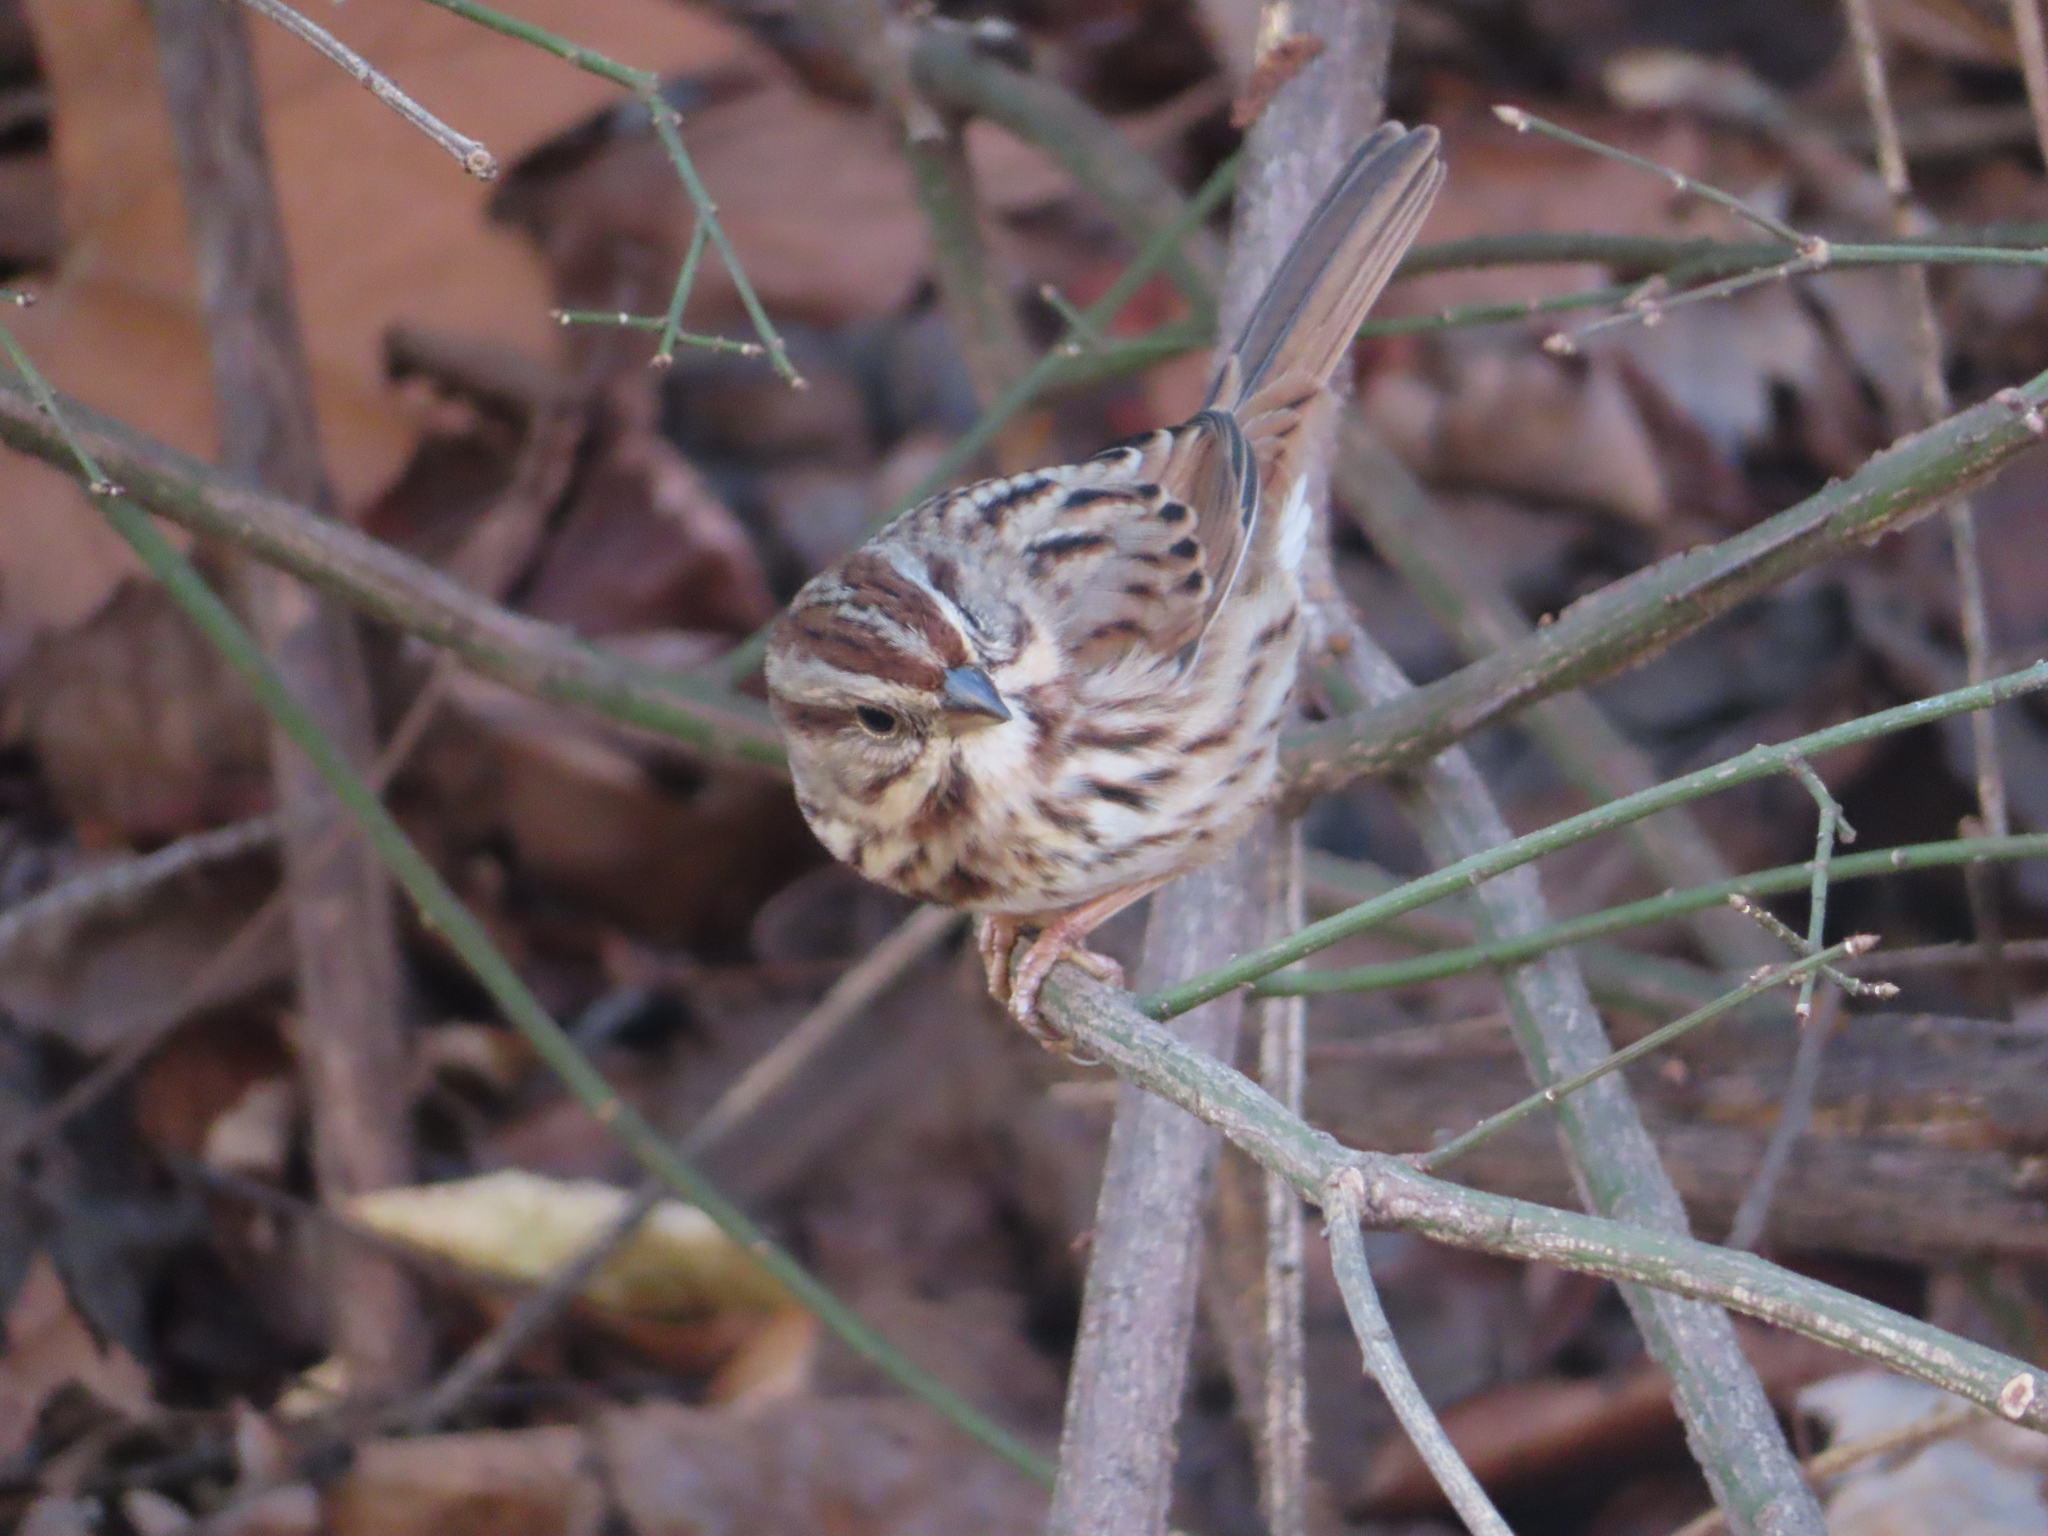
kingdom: Animalia
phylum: Chordata
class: Aves
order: Passeriformes
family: Passerellidae
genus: Melospiza
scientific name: Melospiza melodia
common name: Song sparrow
